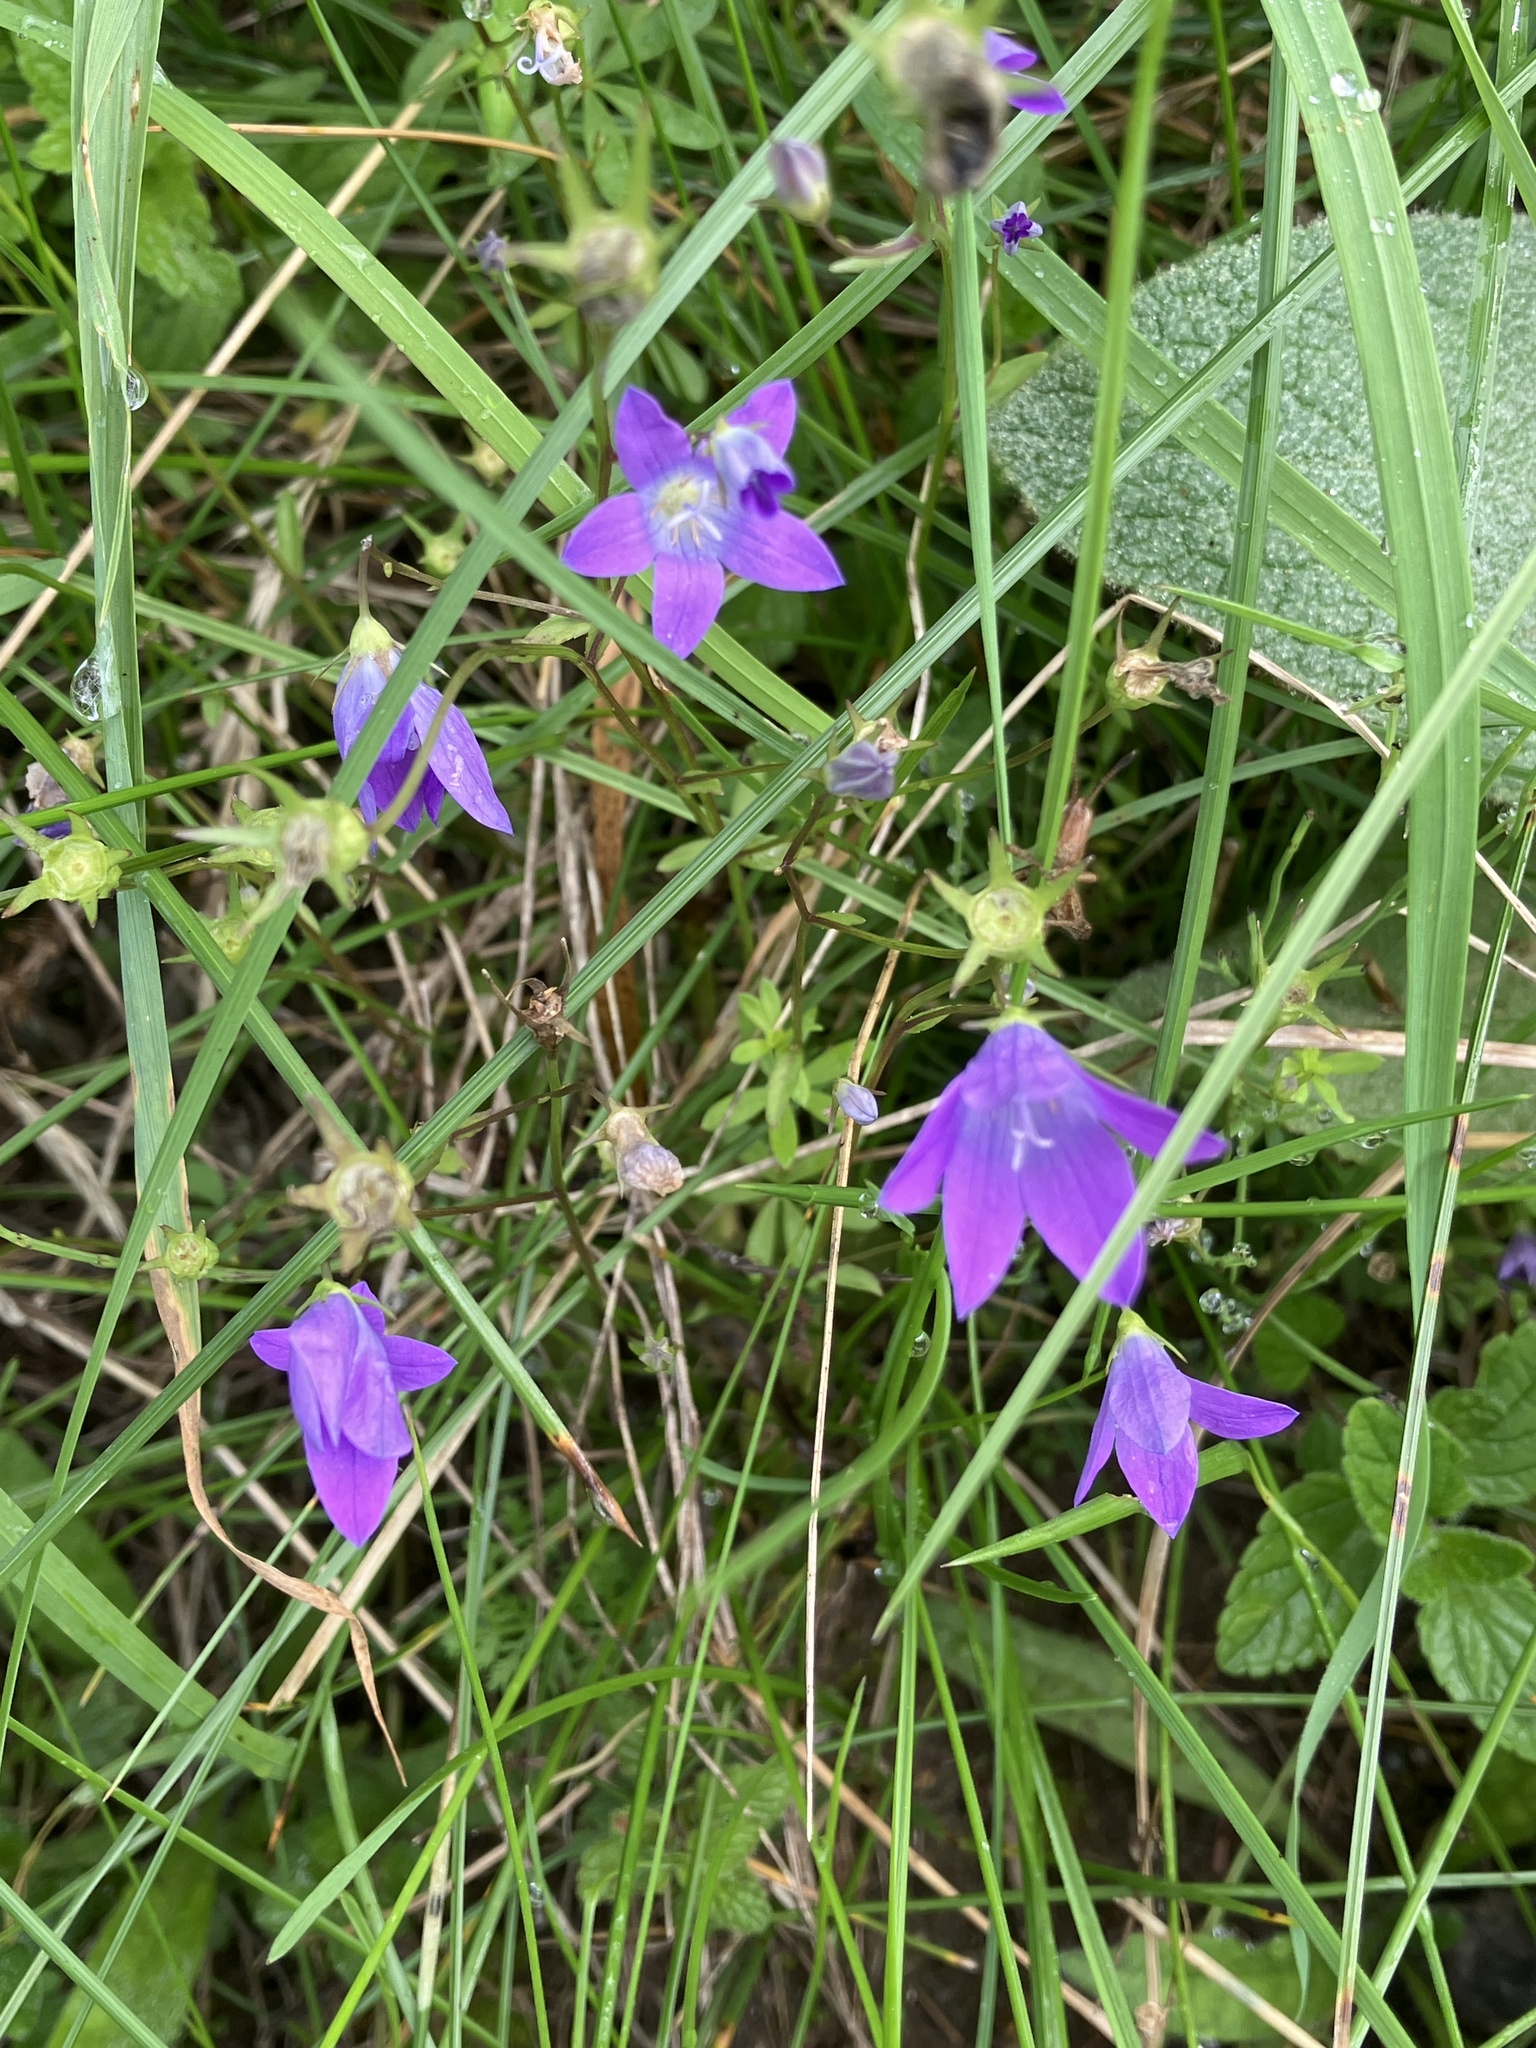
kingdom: Plantae
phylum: Tracheophyta
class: Magnoliopsida
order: Asterales
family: Campanulaceae
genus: Campanula
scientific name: Campanula patula
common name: Spreading bellflower
